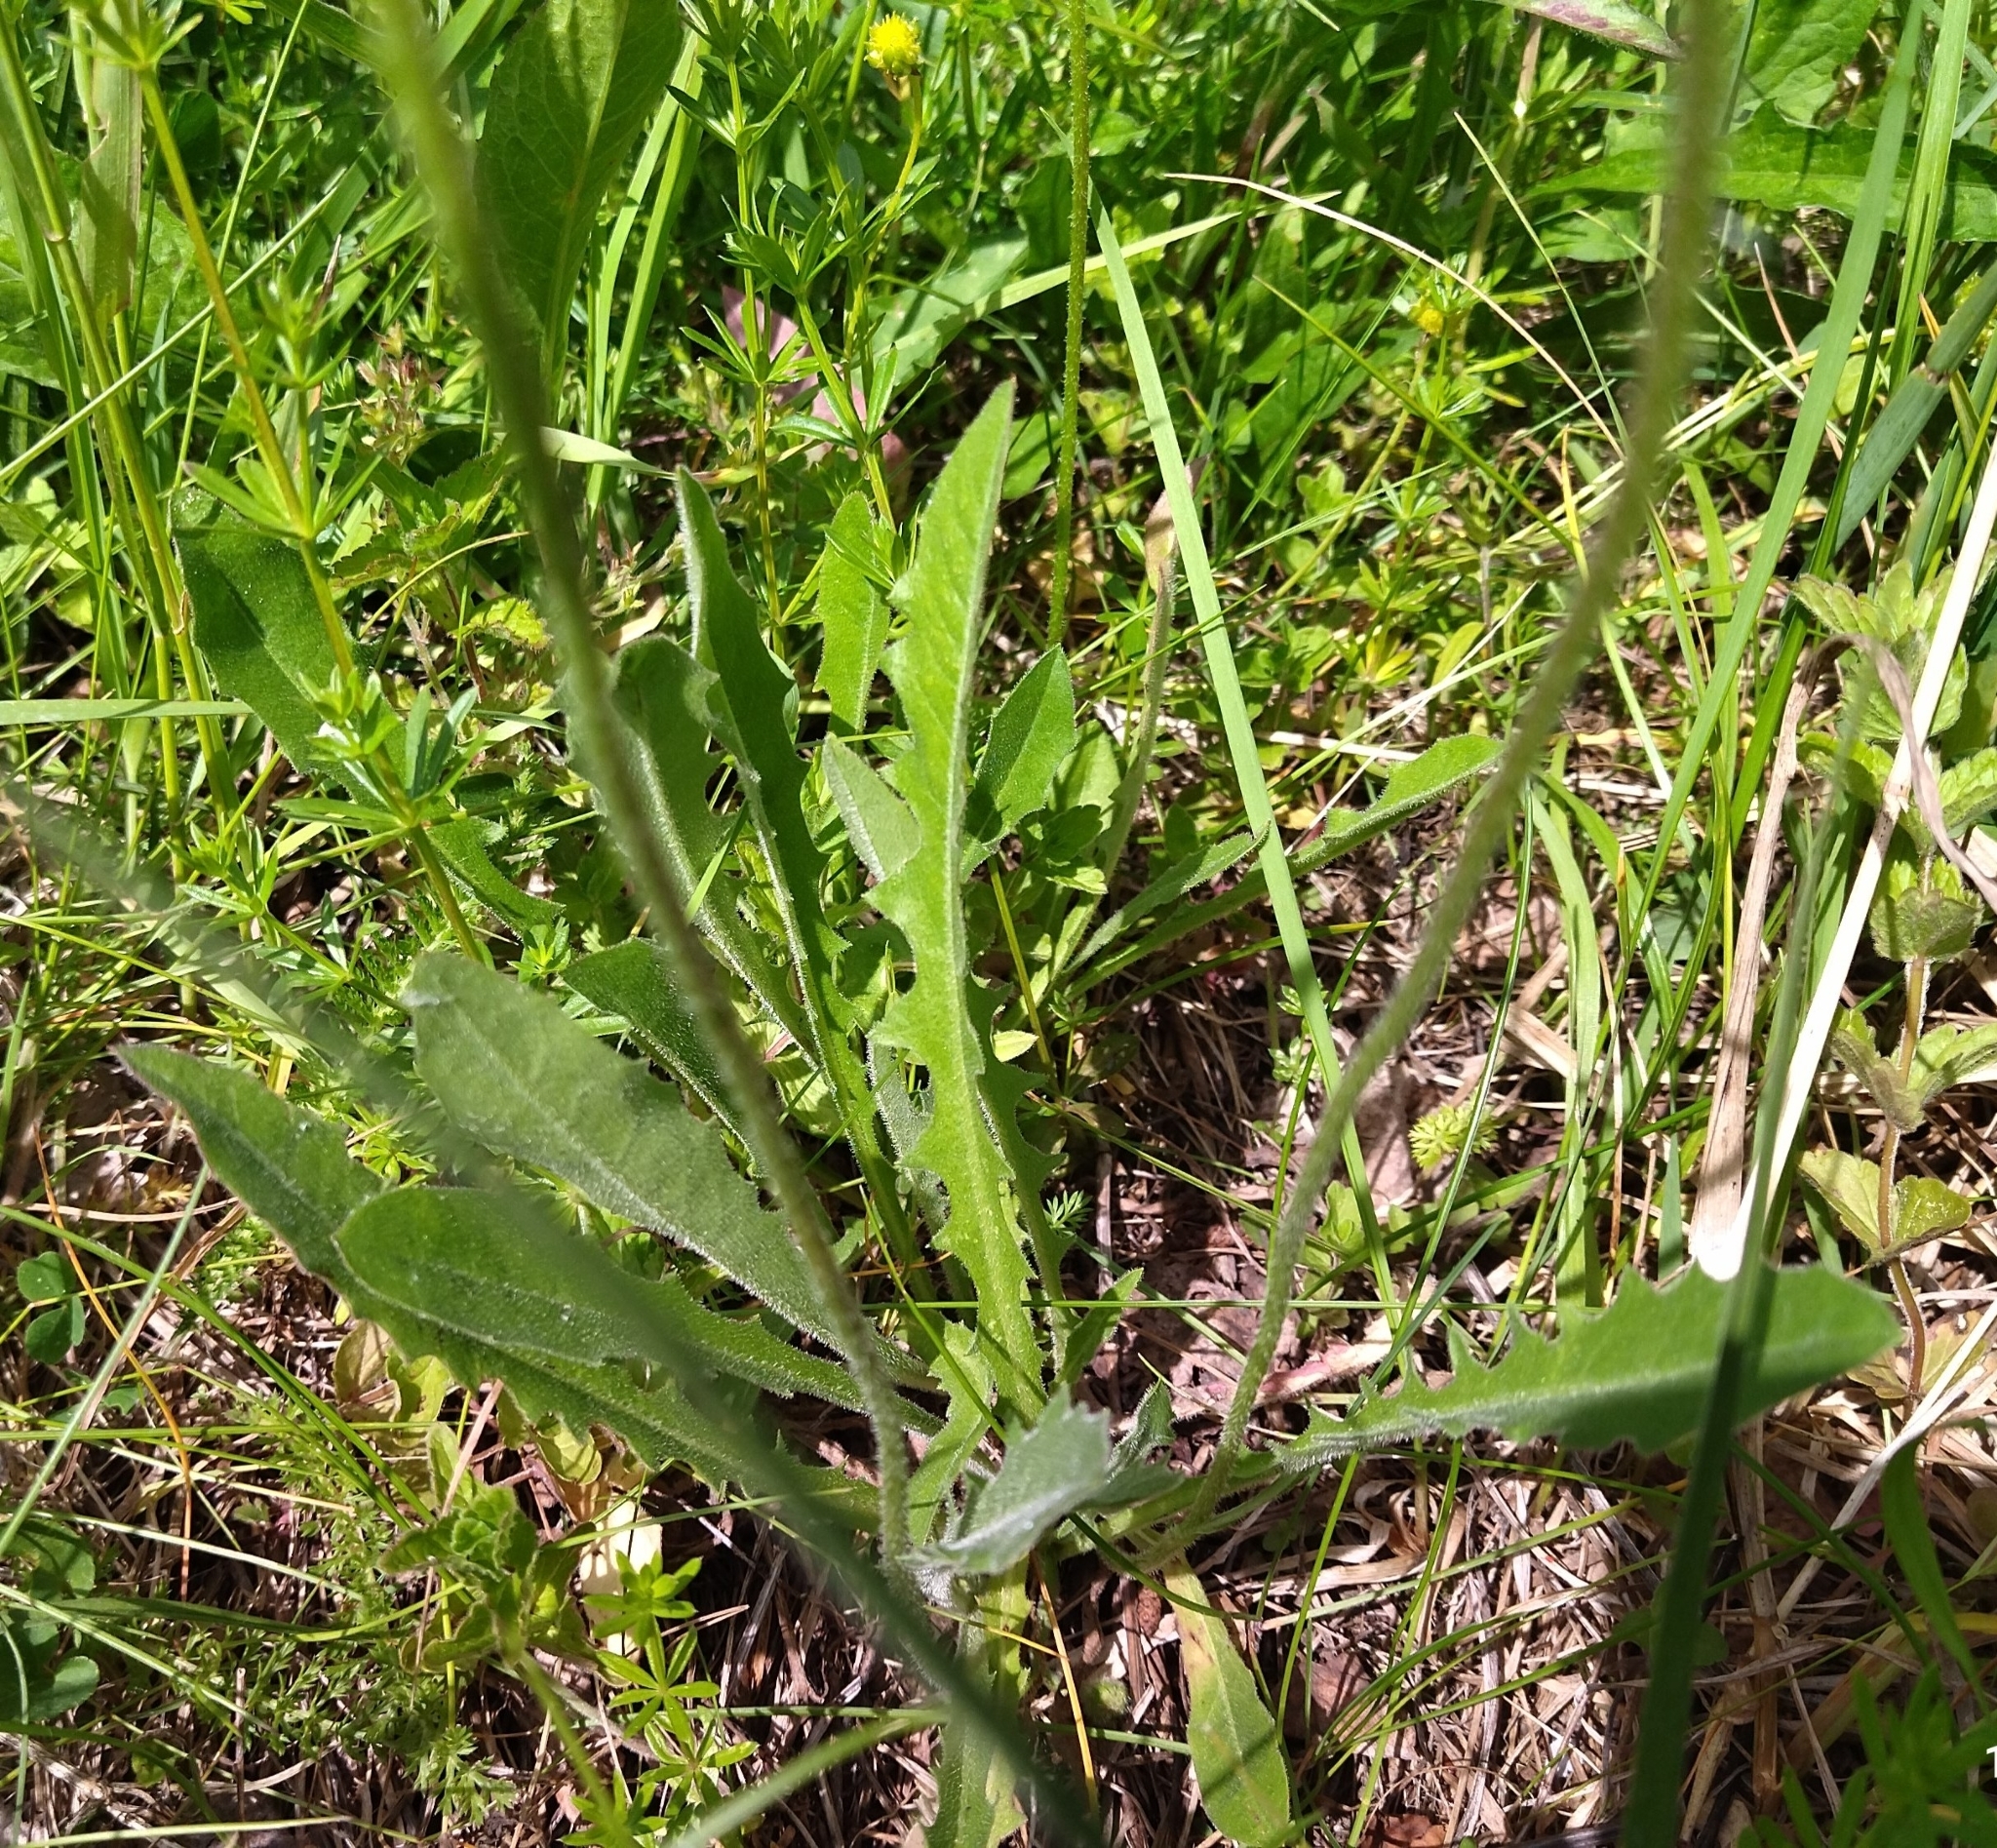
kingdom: Plantae
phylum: Tracheophyta
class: Magnoliopsida
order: Asterales
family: Asteraceae
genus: Leontodon
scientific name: Leontodon hispidus
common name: Rough hawkbit
